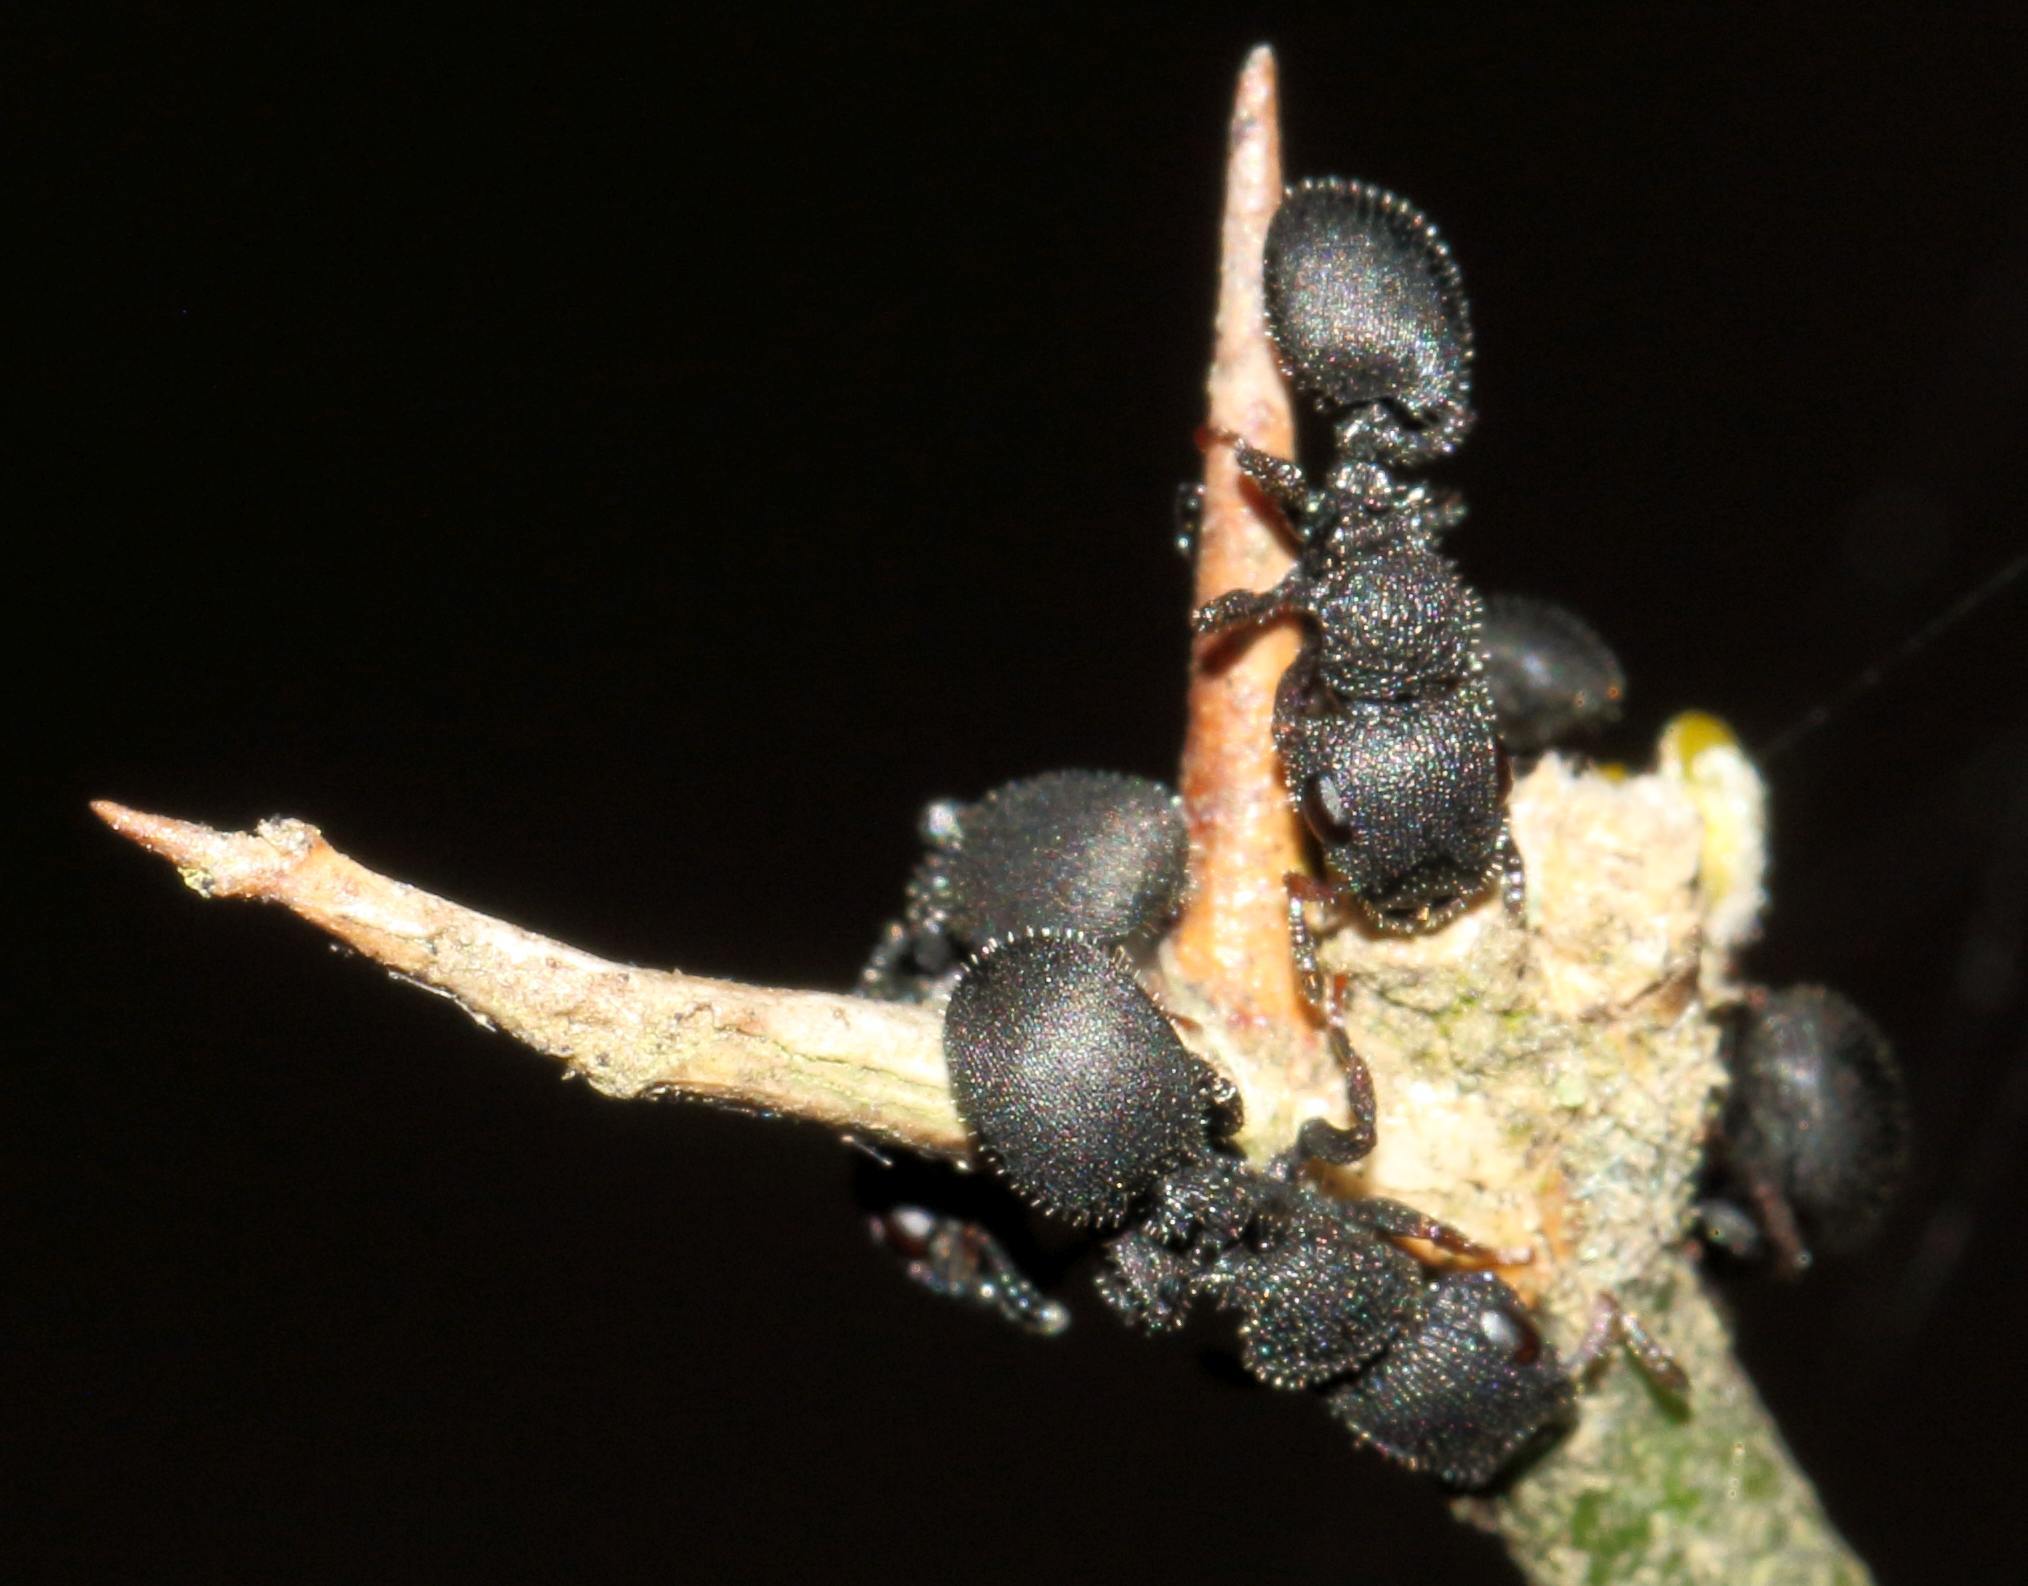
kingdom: Animalia
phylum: Arthropoda
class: Insecta
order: Hymenoptera
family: Formicidae
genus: Cataulacus
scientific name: Cataulacus intrudens
